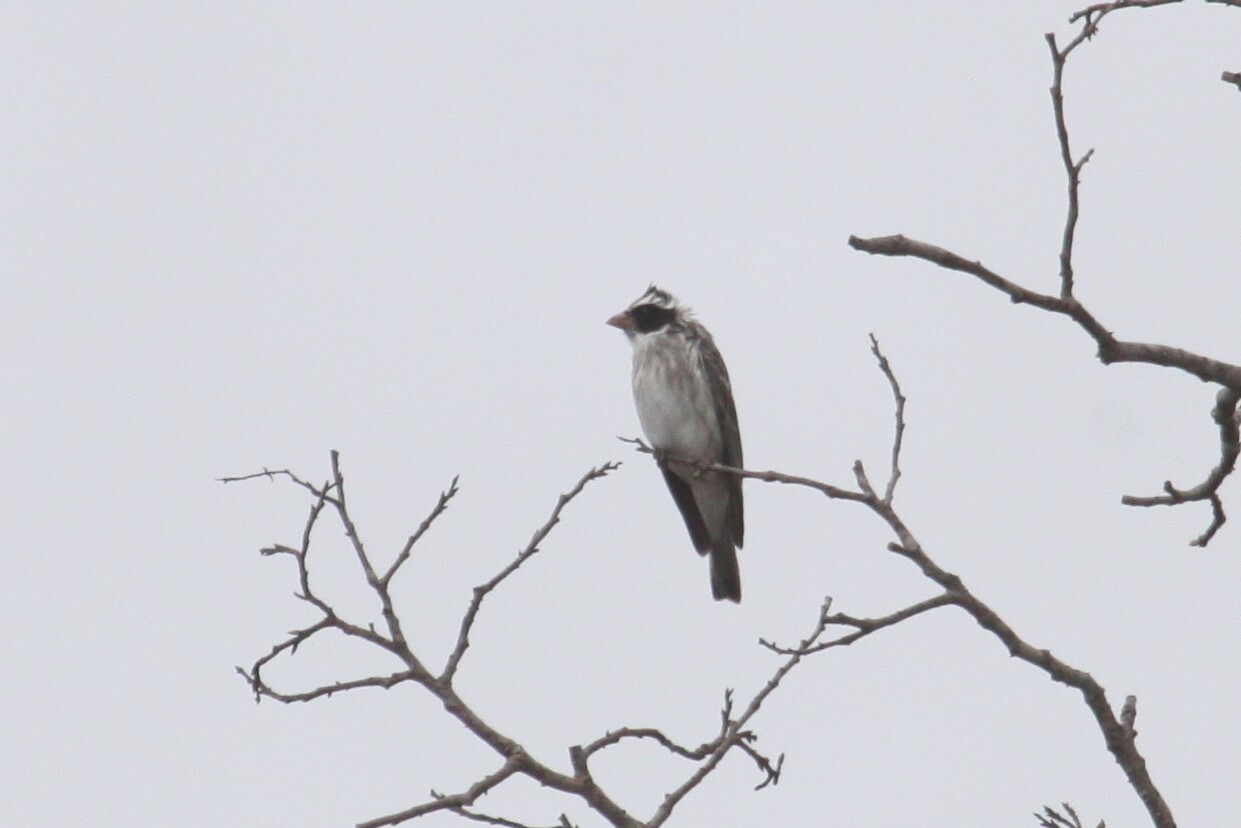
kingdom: Animalia
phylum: Chordata
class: Aves
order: Passeriformes
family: Fringillidae
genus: Crithagra
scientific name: Crithagra mennelli
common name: Black-eared seedeater
